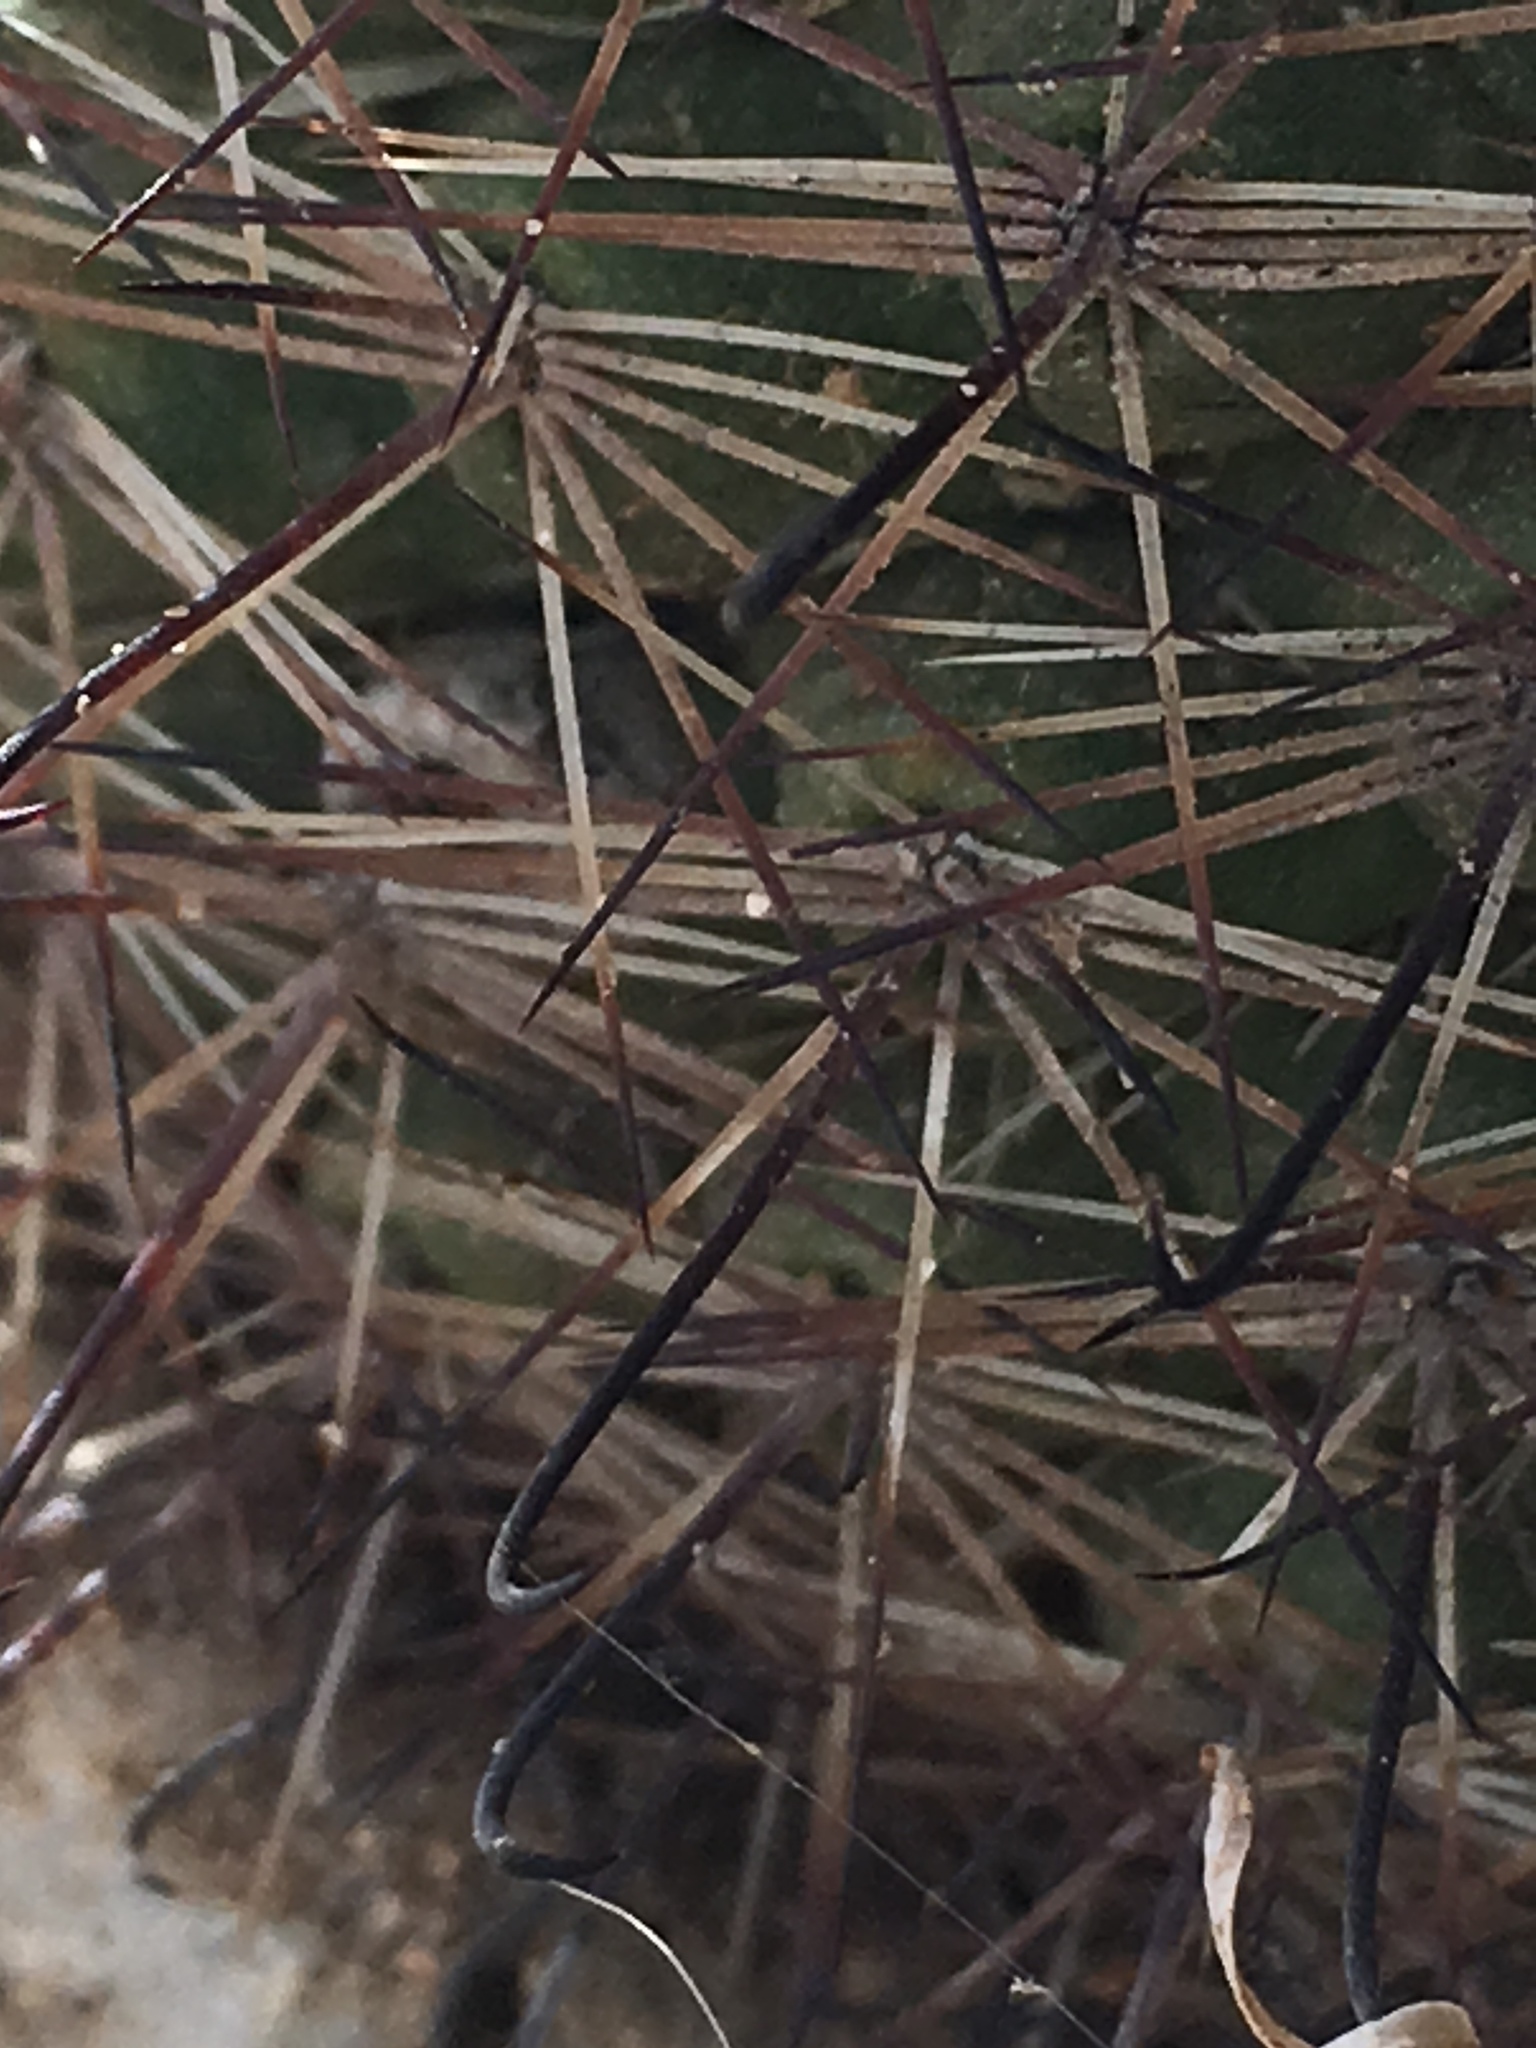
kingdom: Plantae
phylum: Tracheophyta
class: Magnoliopsida
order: Caryophyllales
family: Cactaceae
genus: Cochemiea
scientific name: Cochemiea dioica
